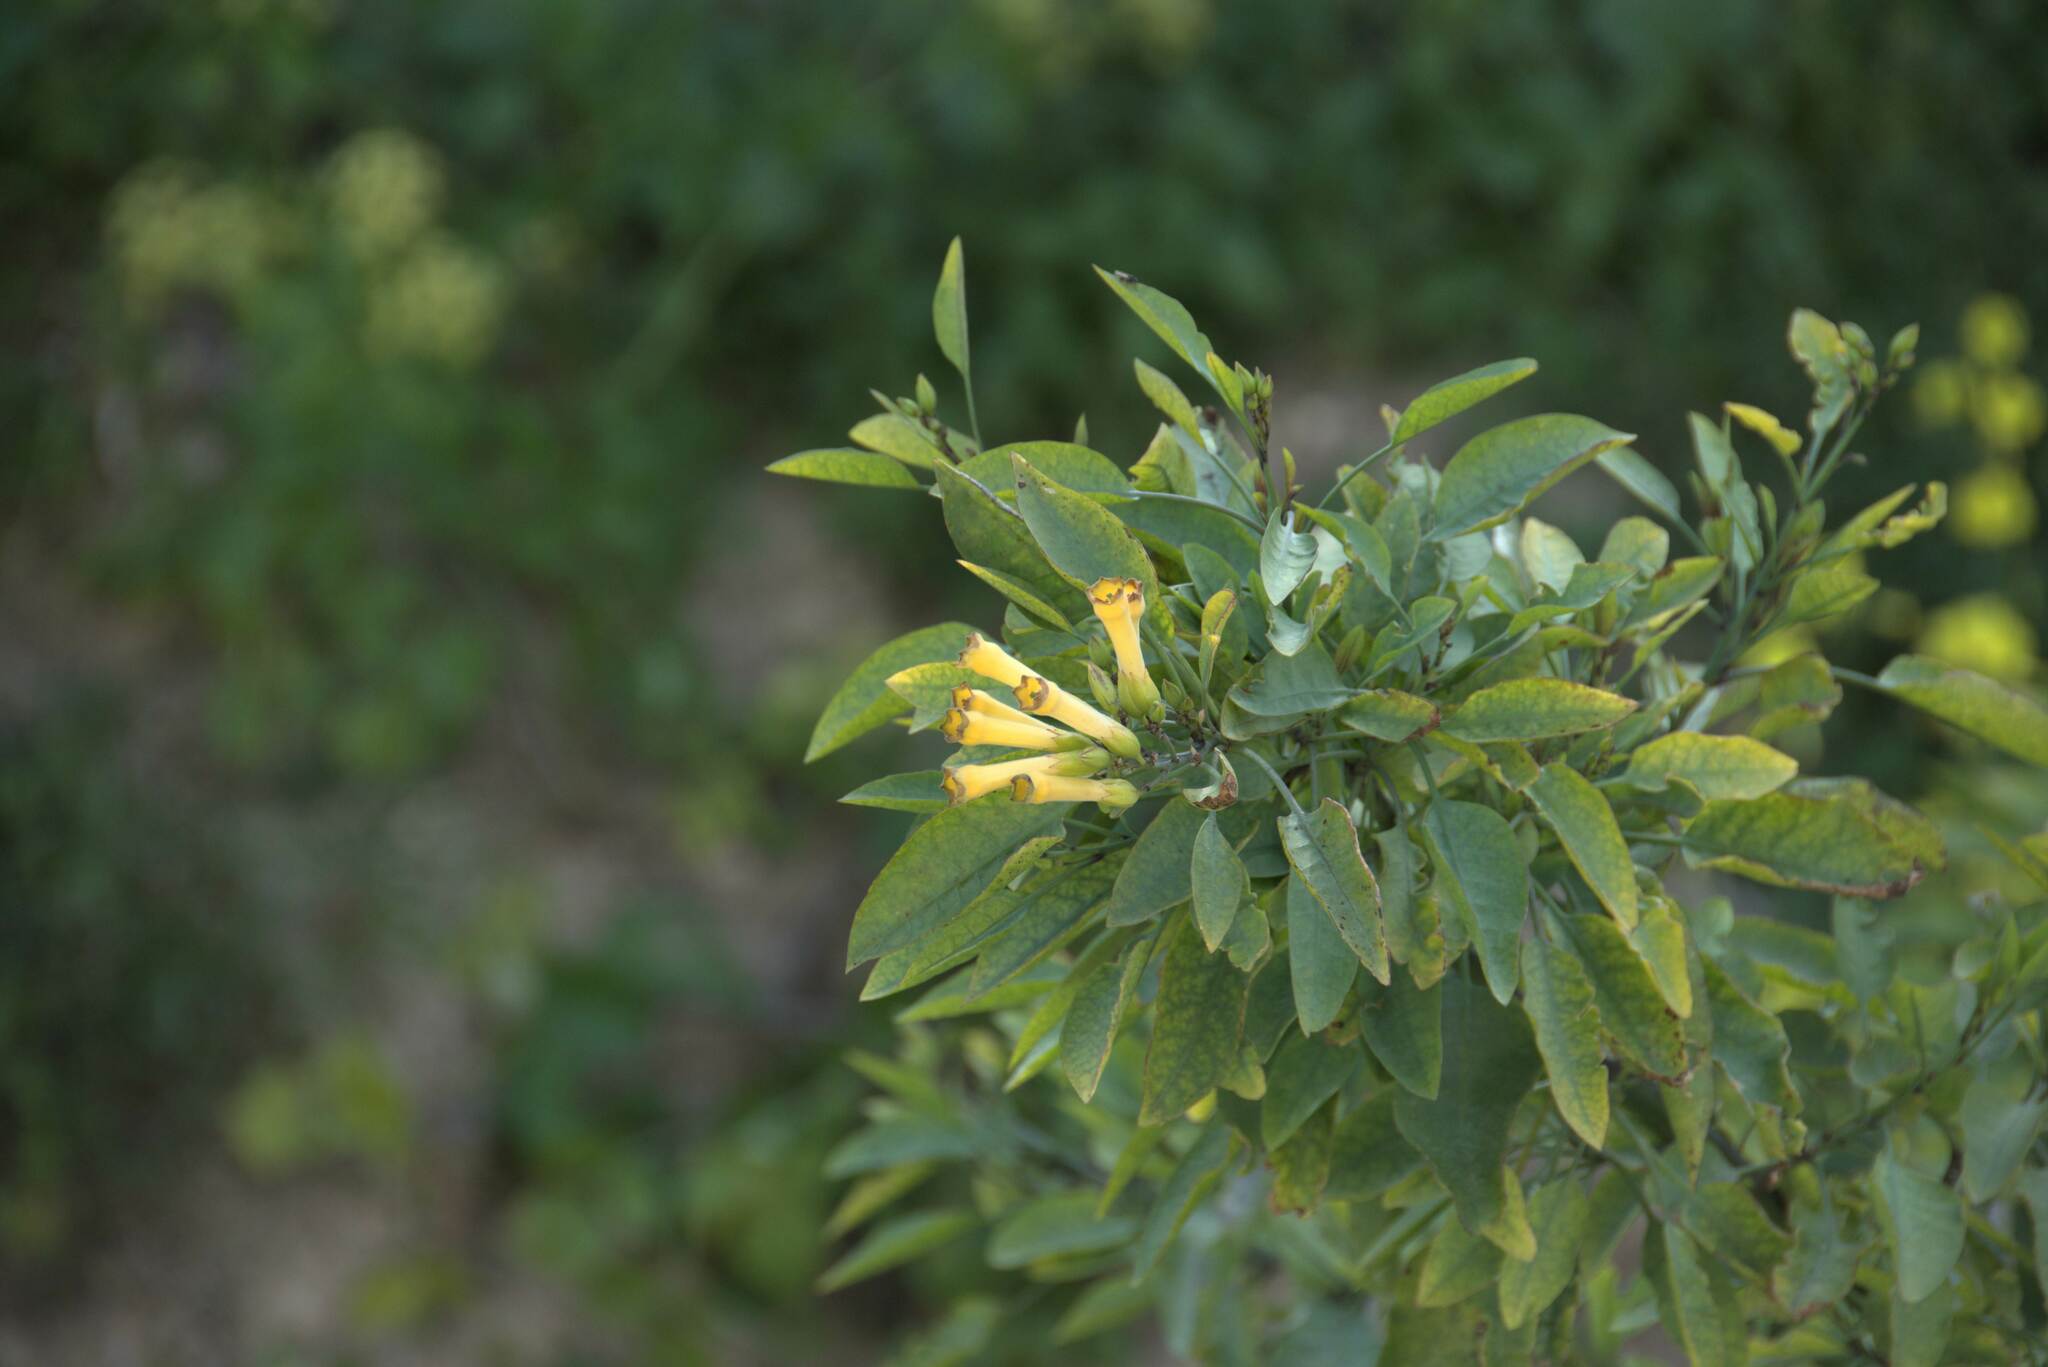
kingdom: Plantae
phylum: Tracheophyta
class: Magnoliopsida
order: Solanales
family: Solanaceae
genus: Nicotiana
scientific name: Nicotiana glauca
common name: Tree tobacco
